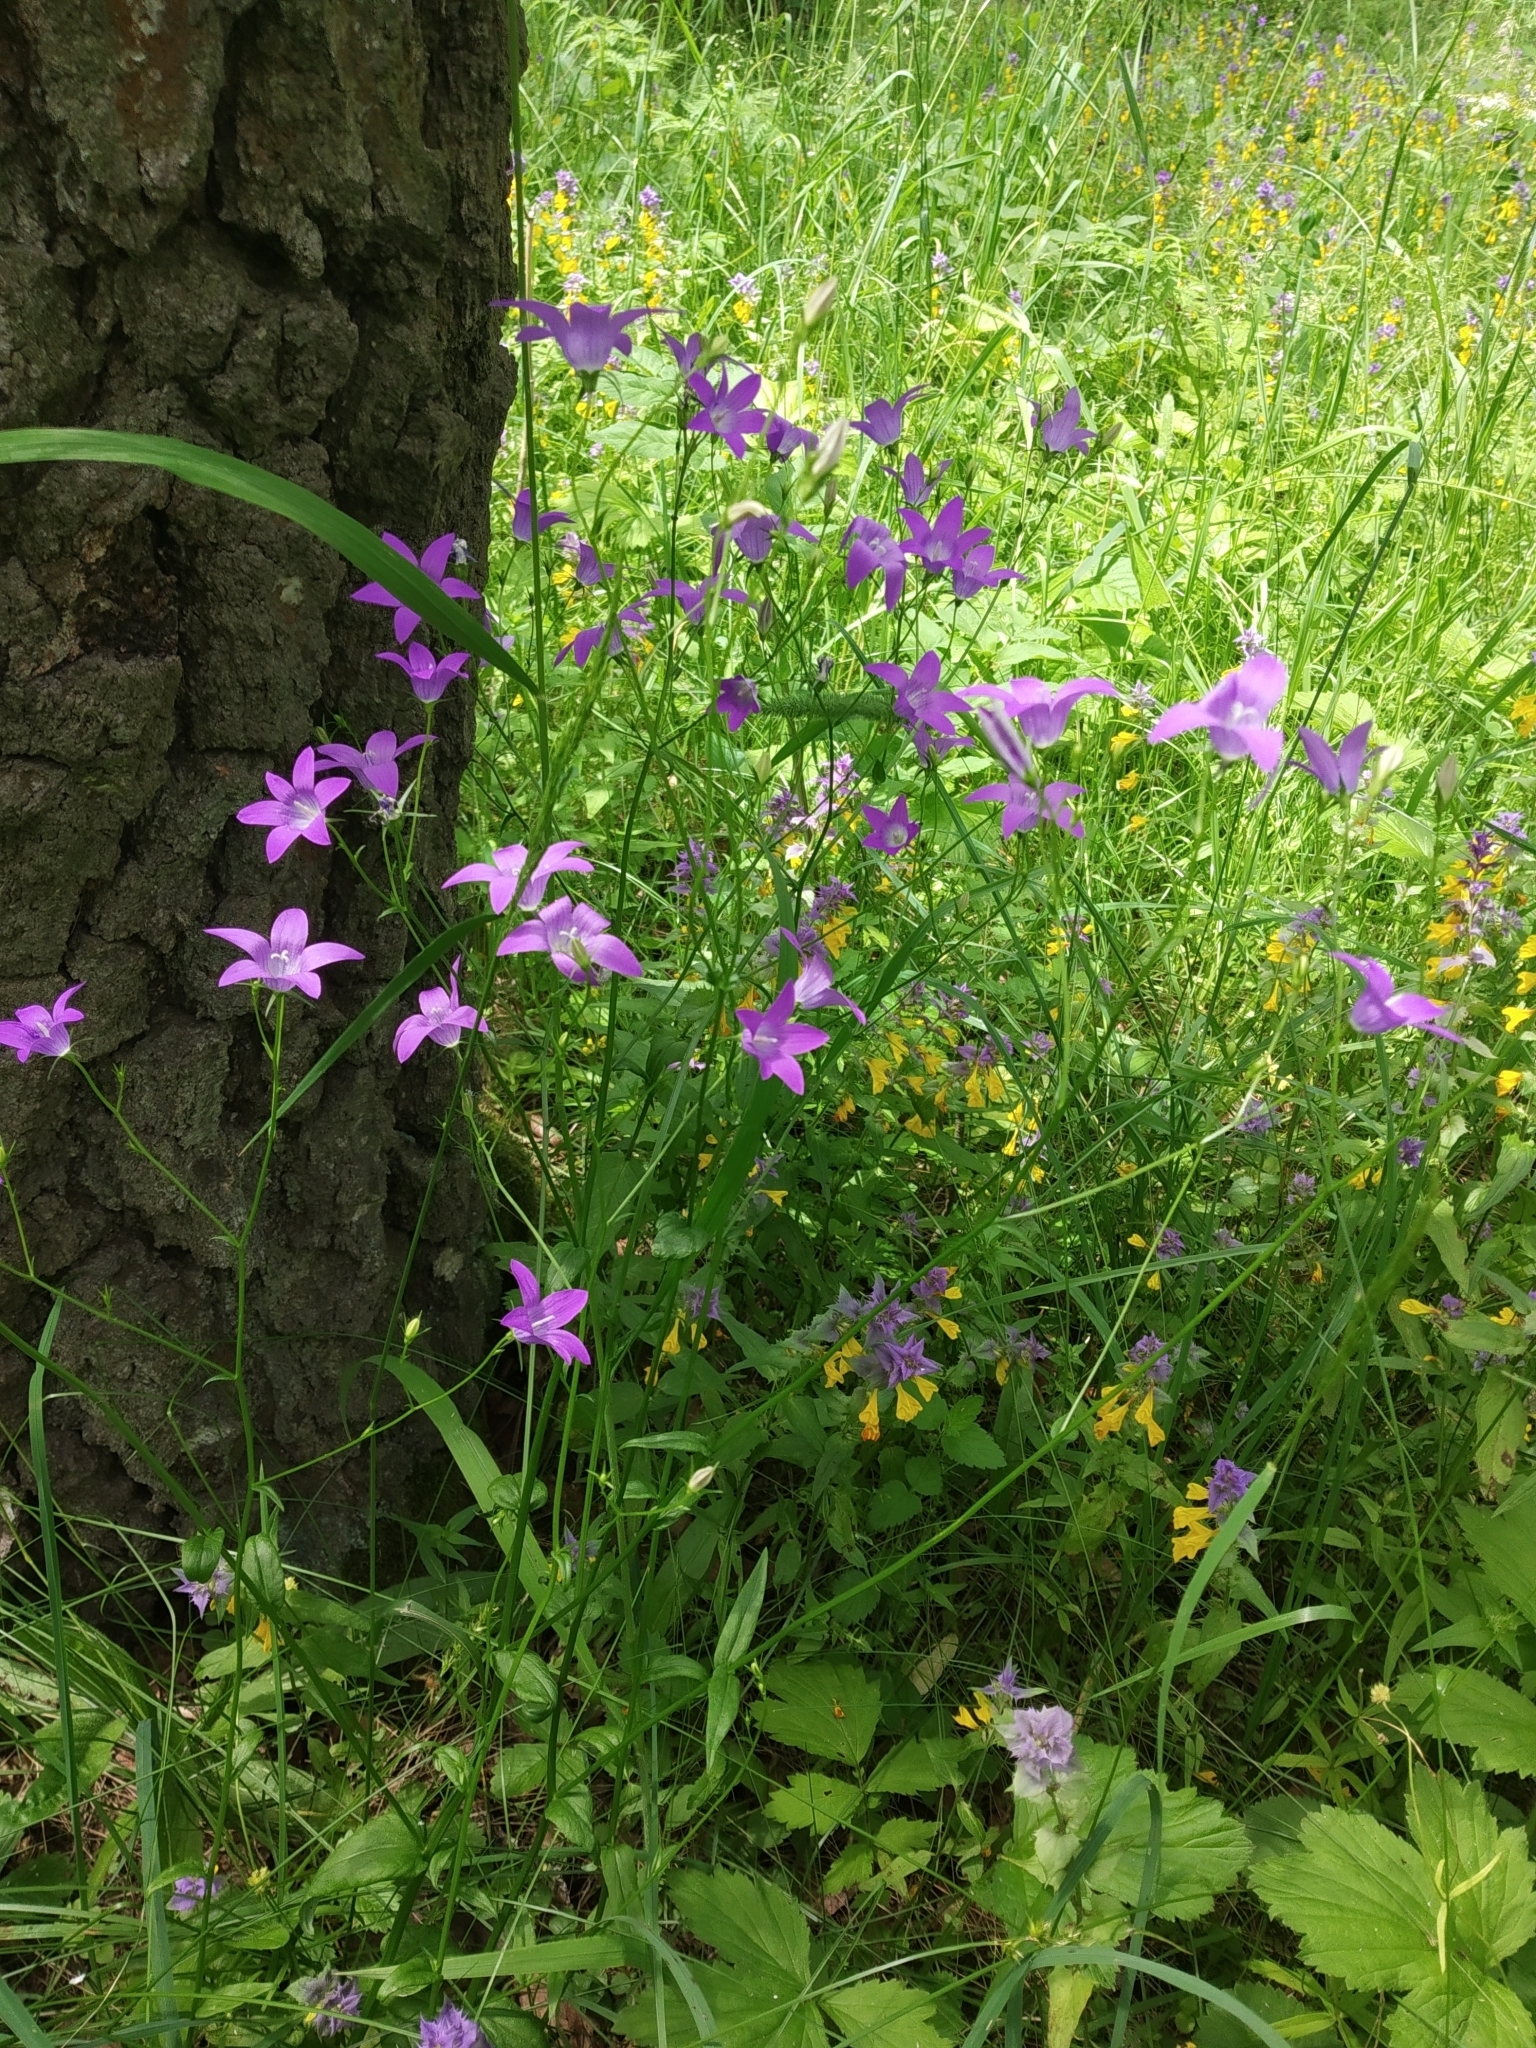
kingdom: Plantae
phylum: Tracheophyta
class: Magnoliopsida
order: Asterales
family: Campanulaceae
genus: Campanula
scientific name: Campanula patula
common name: Spreading bellflower
